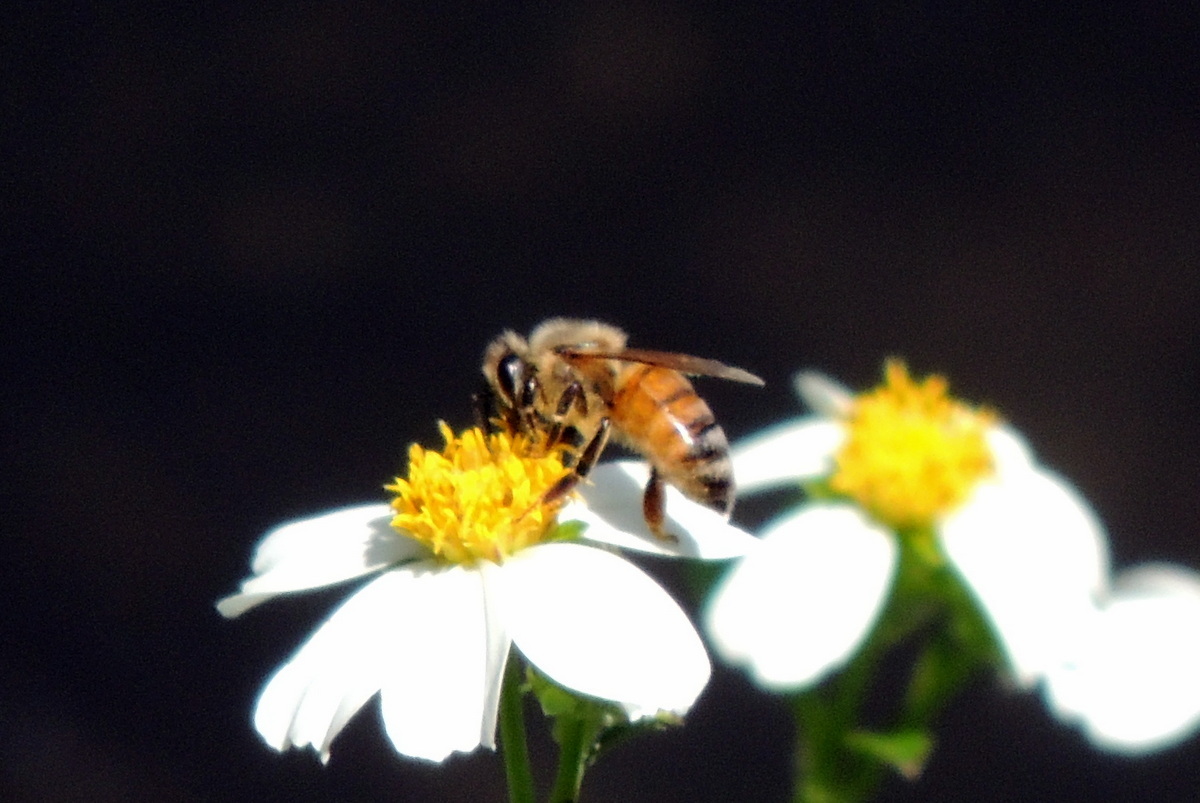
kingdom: Animalia
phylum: Arthropoda
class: Insecta
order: Hymenoptera
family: Apidae
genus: Apis
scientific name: Apis mellifera
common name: Honey bee
